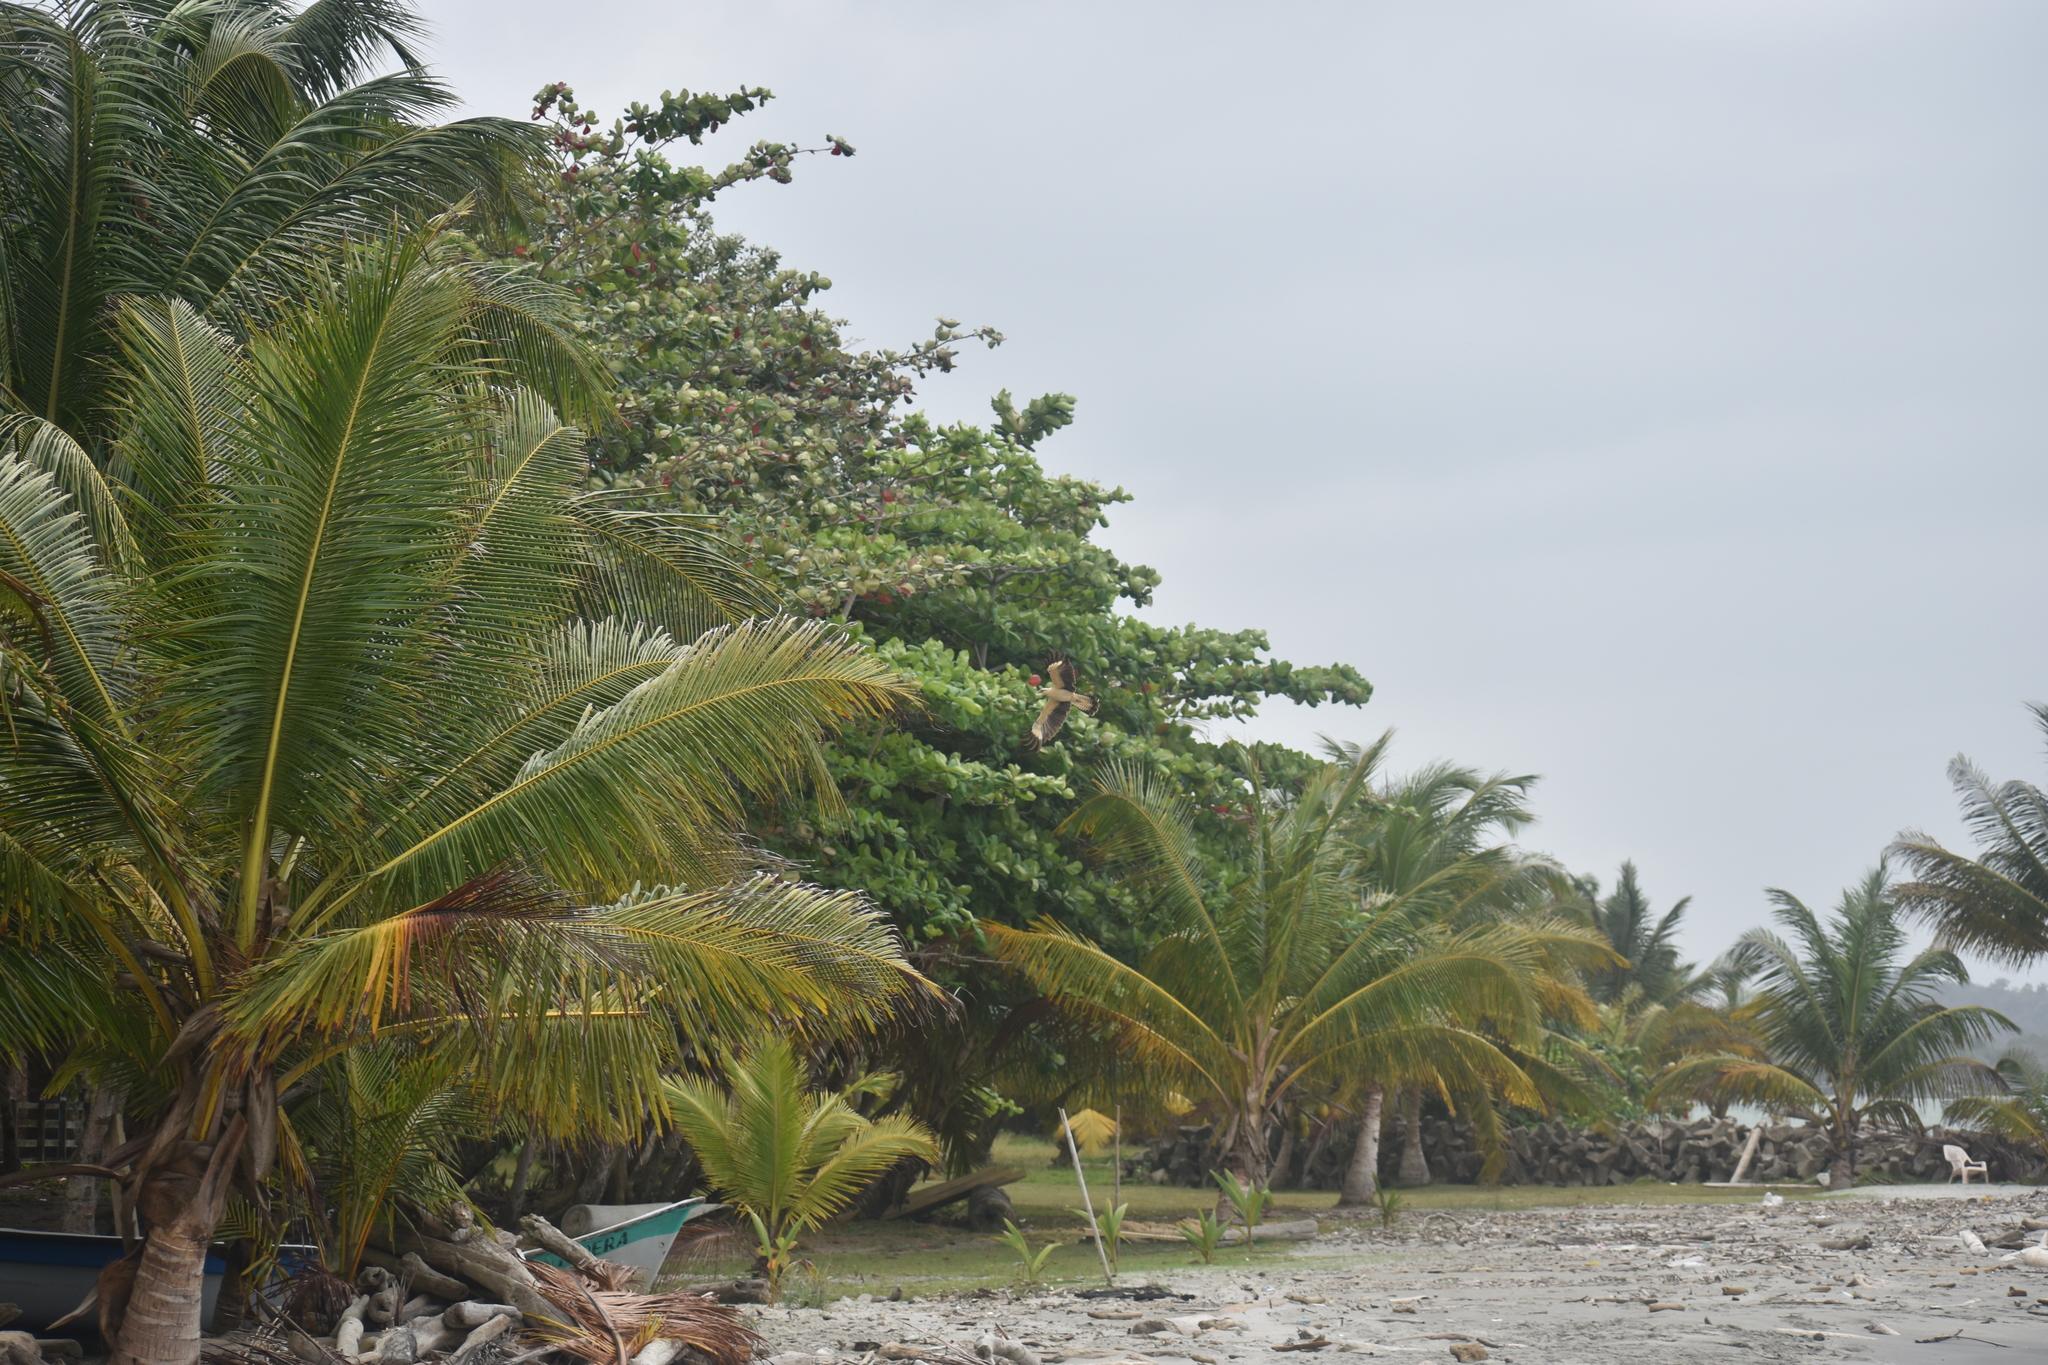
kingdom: Animalia
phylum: Chordata
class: Aves
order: Falconiformes
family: Falconidae
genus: Daptrius
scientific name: Daptrius
